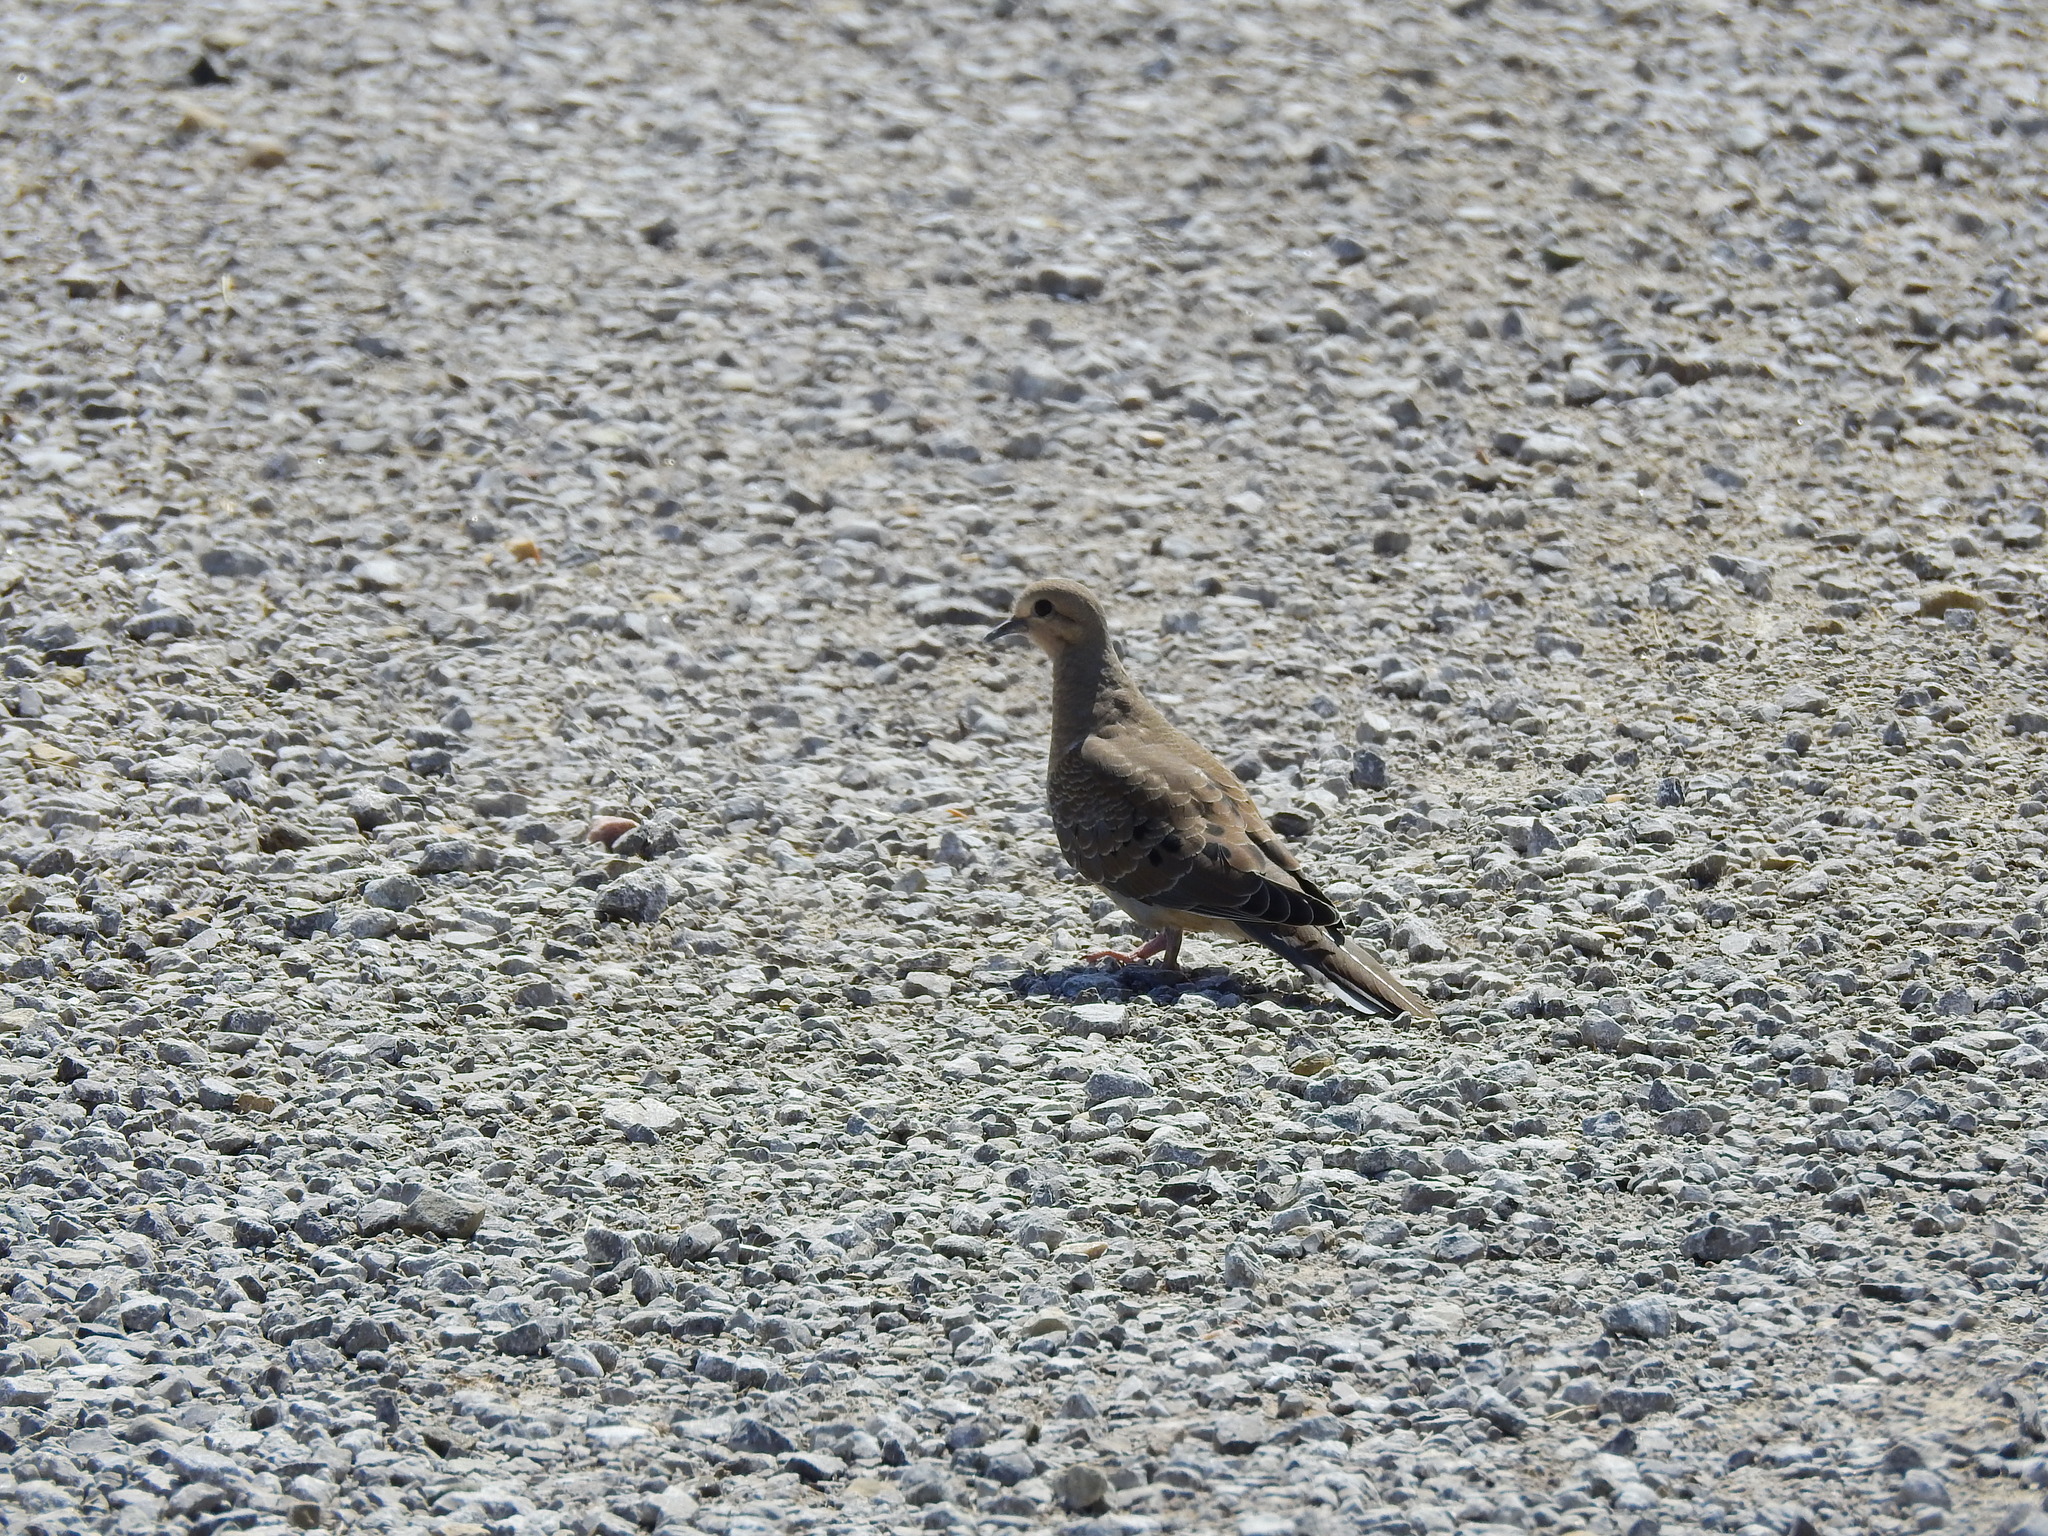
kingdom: Animalia
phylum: Chordata
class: Aves
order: Columbiformes
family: Columbidae
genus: Zenaida
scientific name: Zenaida macroura
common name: Mourning dove
